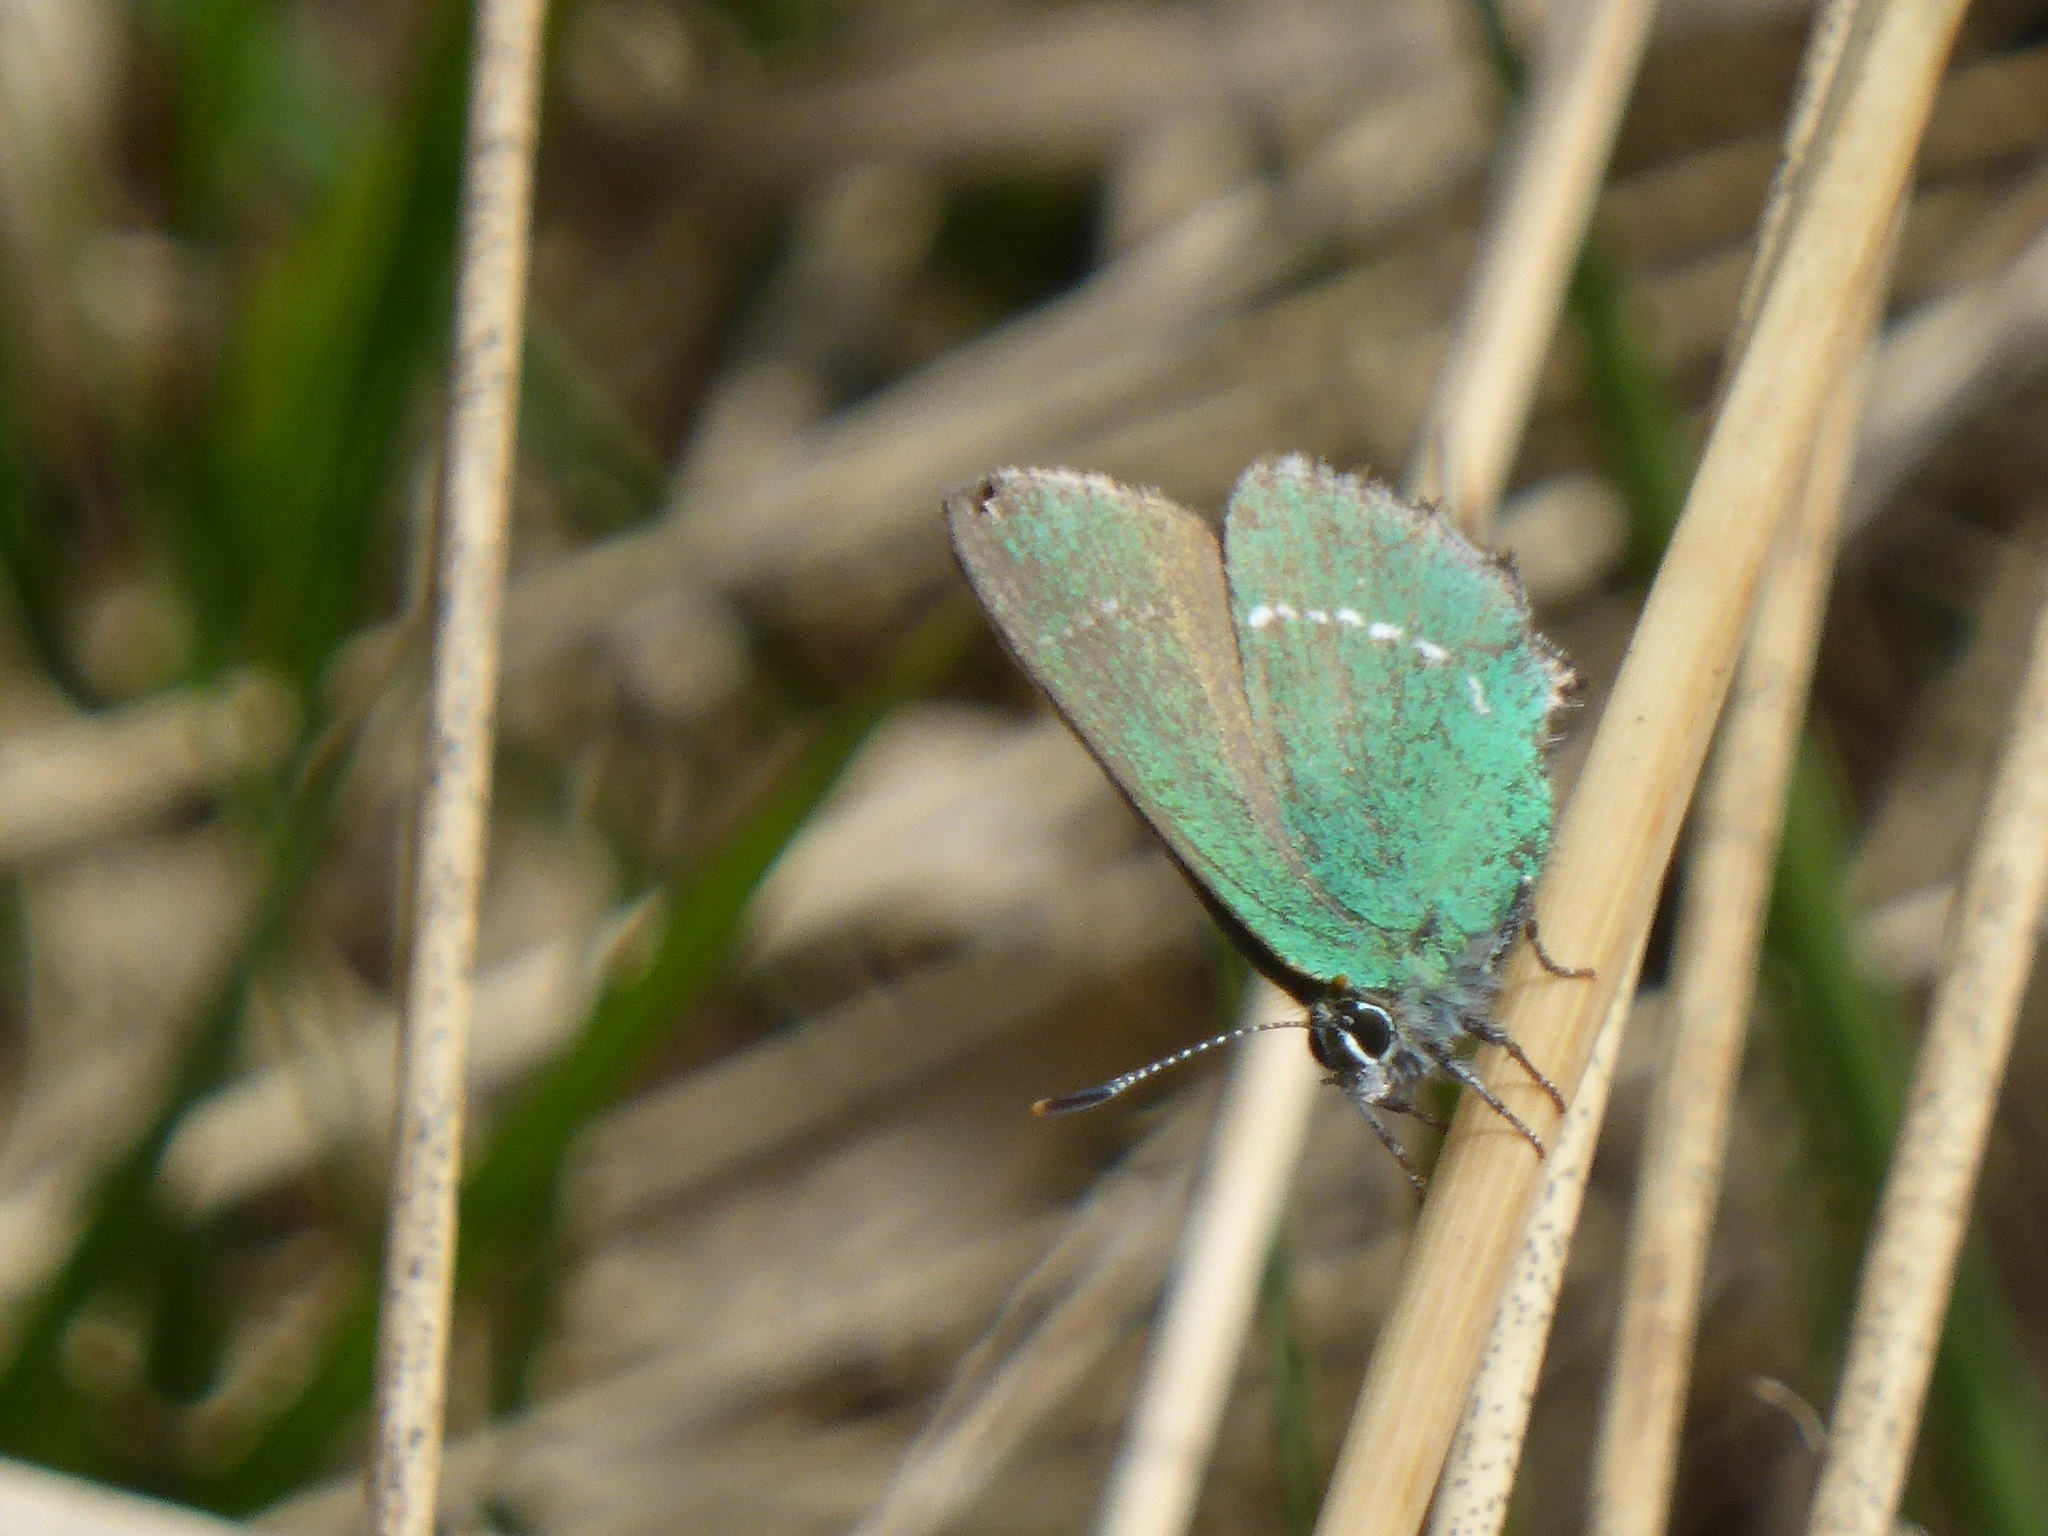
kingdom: Animalia
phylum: Arthropoda
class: Insecta
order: Lepidoptera
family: Lycaenidae
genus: Callophrys
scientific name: Callophrys rubi
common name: Green hairstreak
